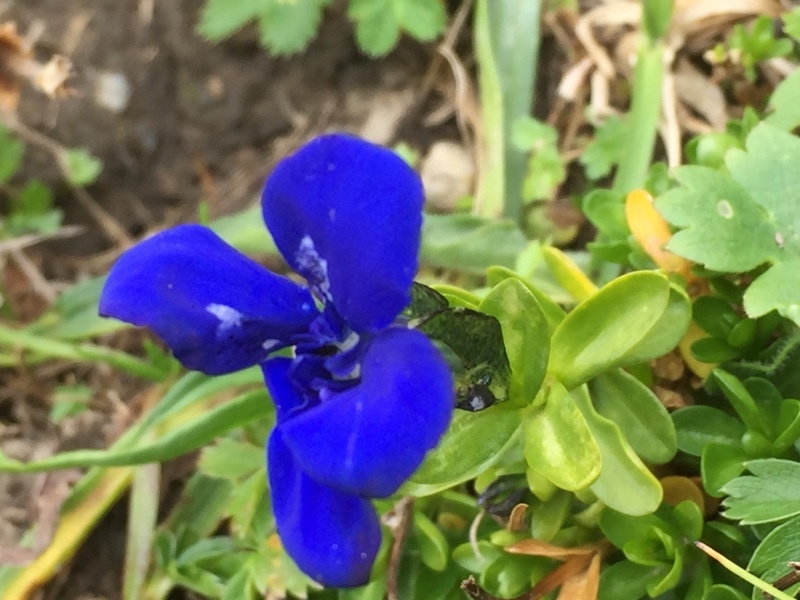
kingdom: Plantae
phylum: Tracheophyta
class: Magnoliopsida
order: Gentianales
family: Gentianaceae
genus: Gentiana
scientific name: Gentiana bavarica
